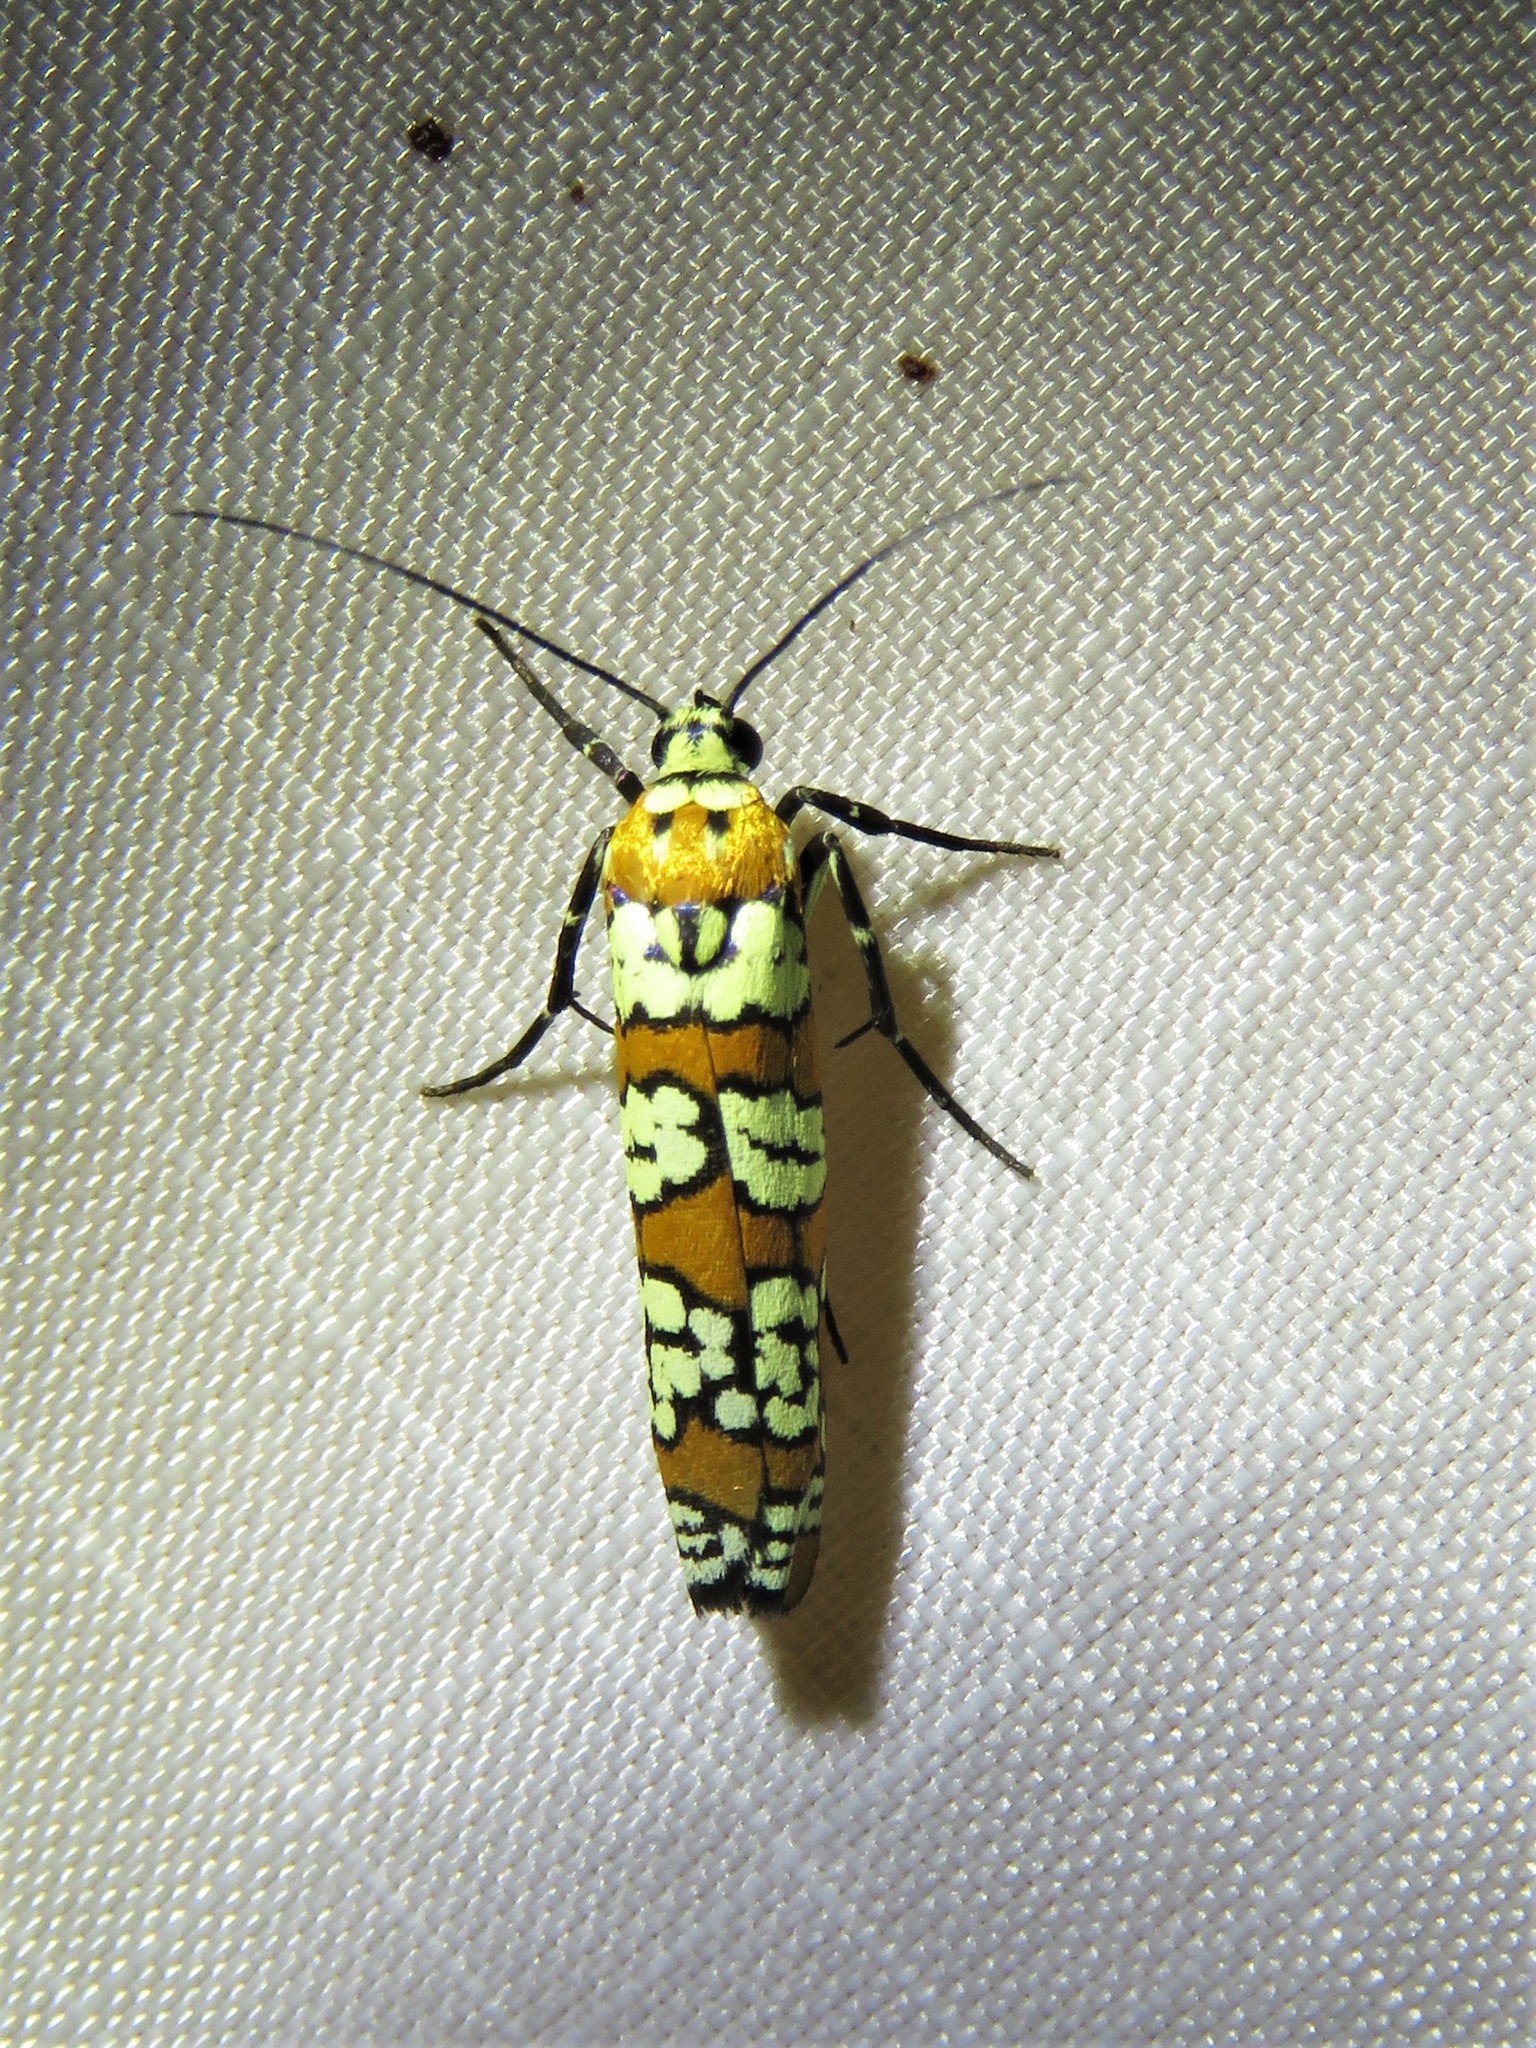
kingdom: Animalia
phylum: Arthropoda
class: Insecta
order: Lepidoptera
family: Attevidae
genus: Atteva
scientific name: Atteva punctella
